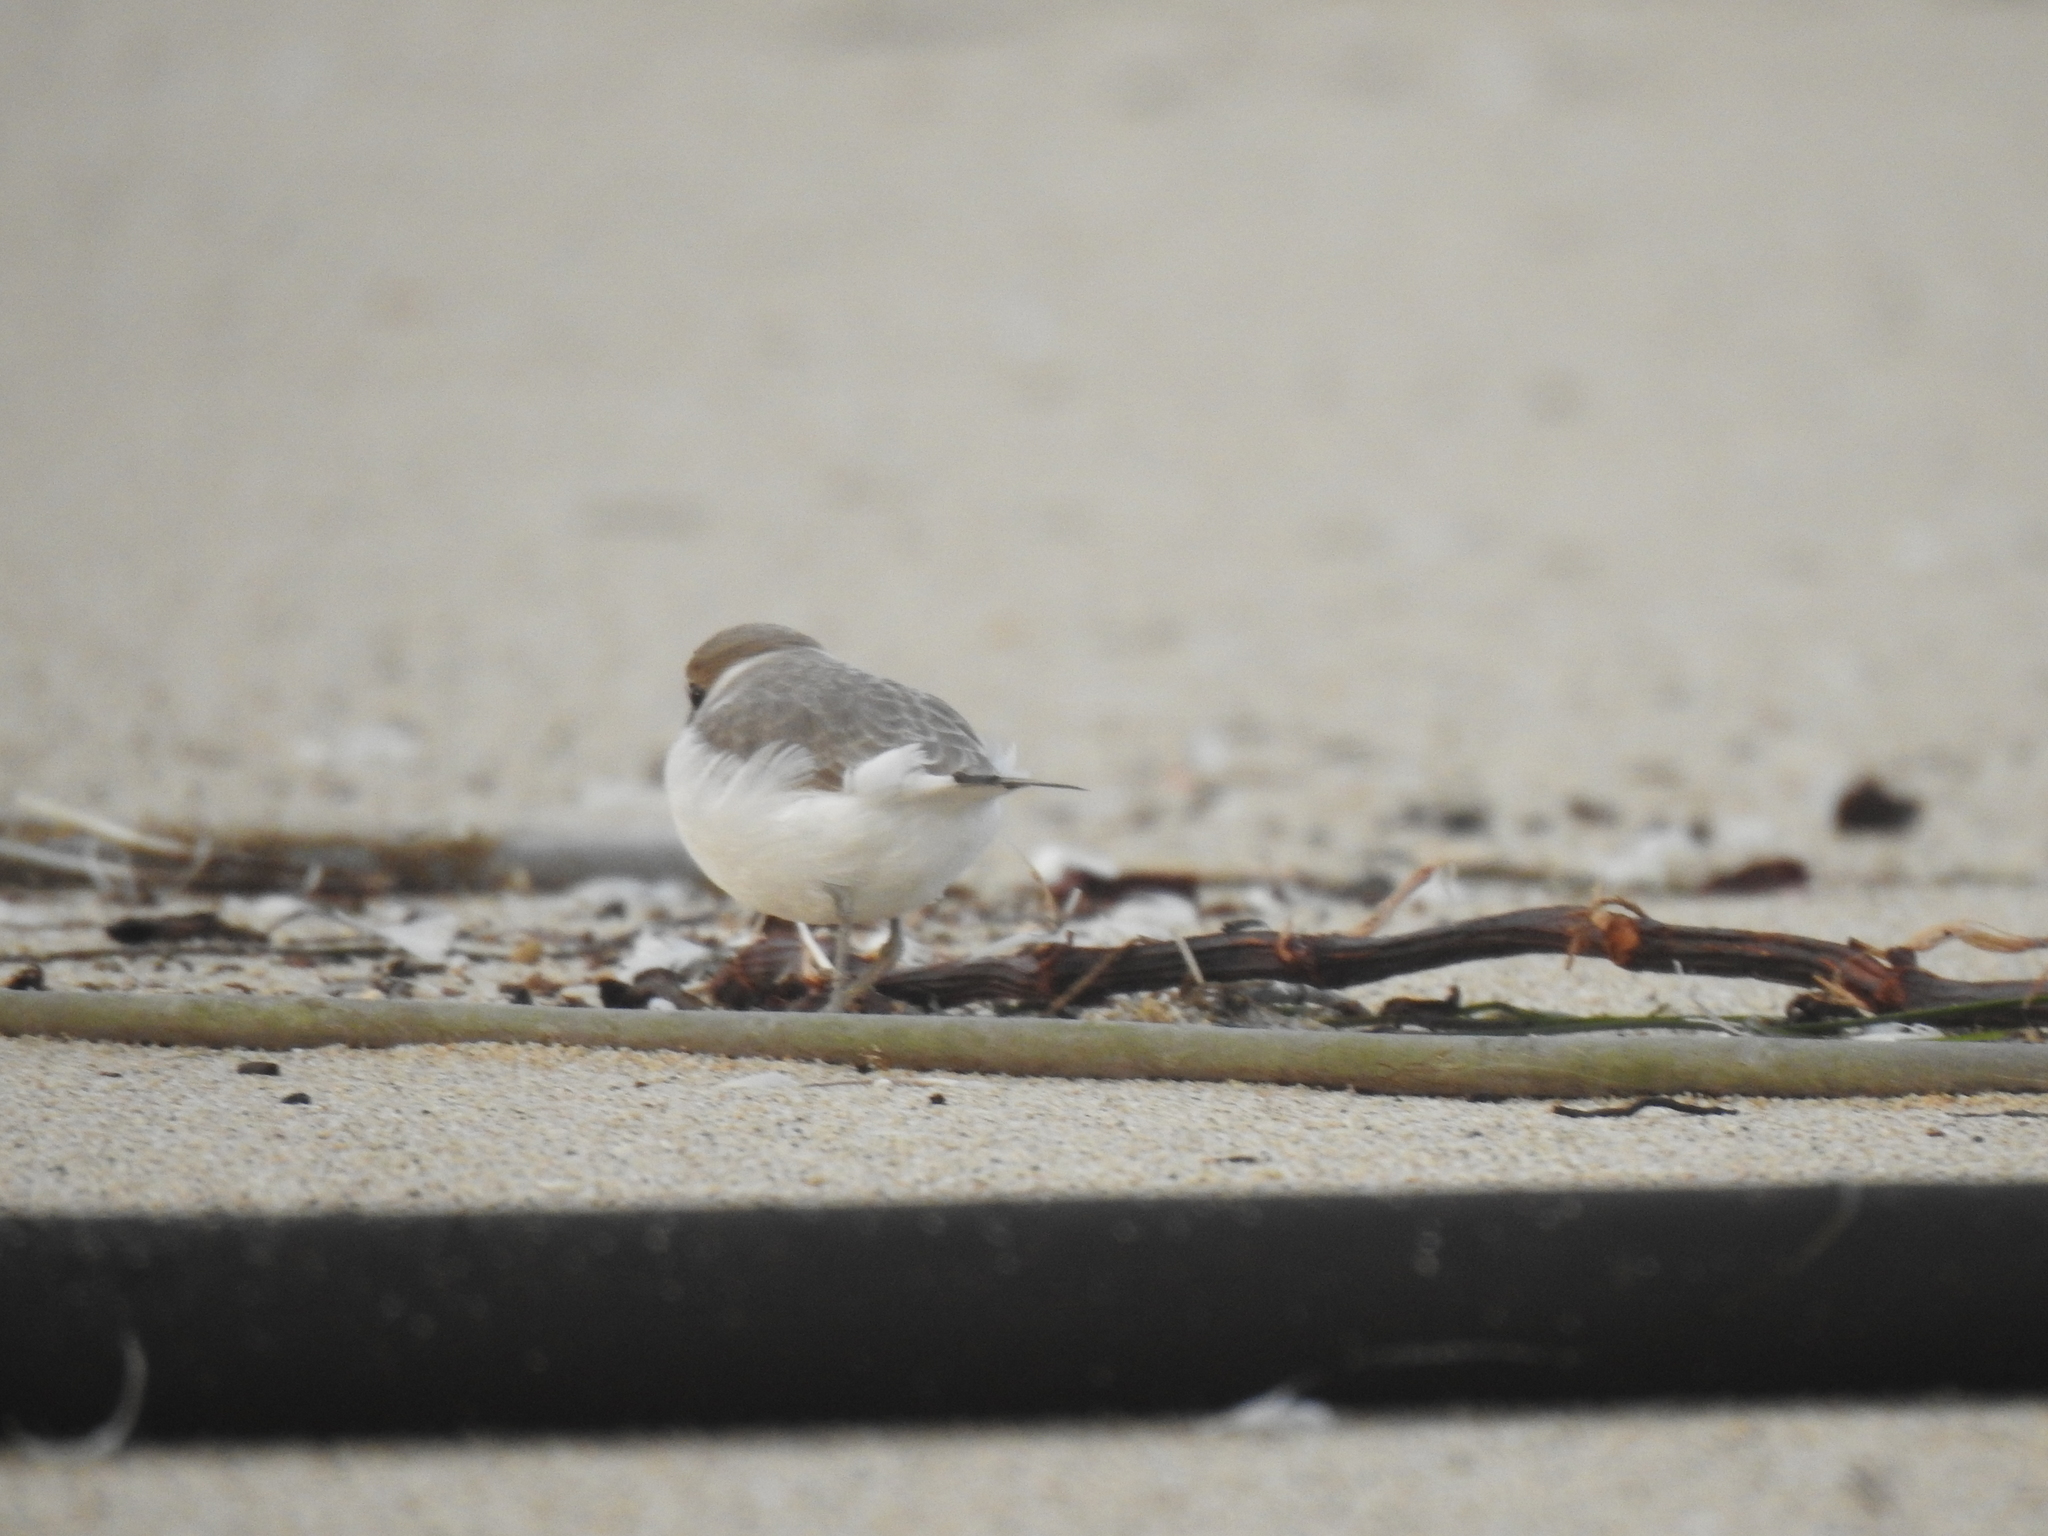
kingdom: Animalia
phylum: Chordata
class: Aves
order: Charadriiformes
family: Charadriidae
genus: Anarhynchus
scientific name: Anarhynchus
